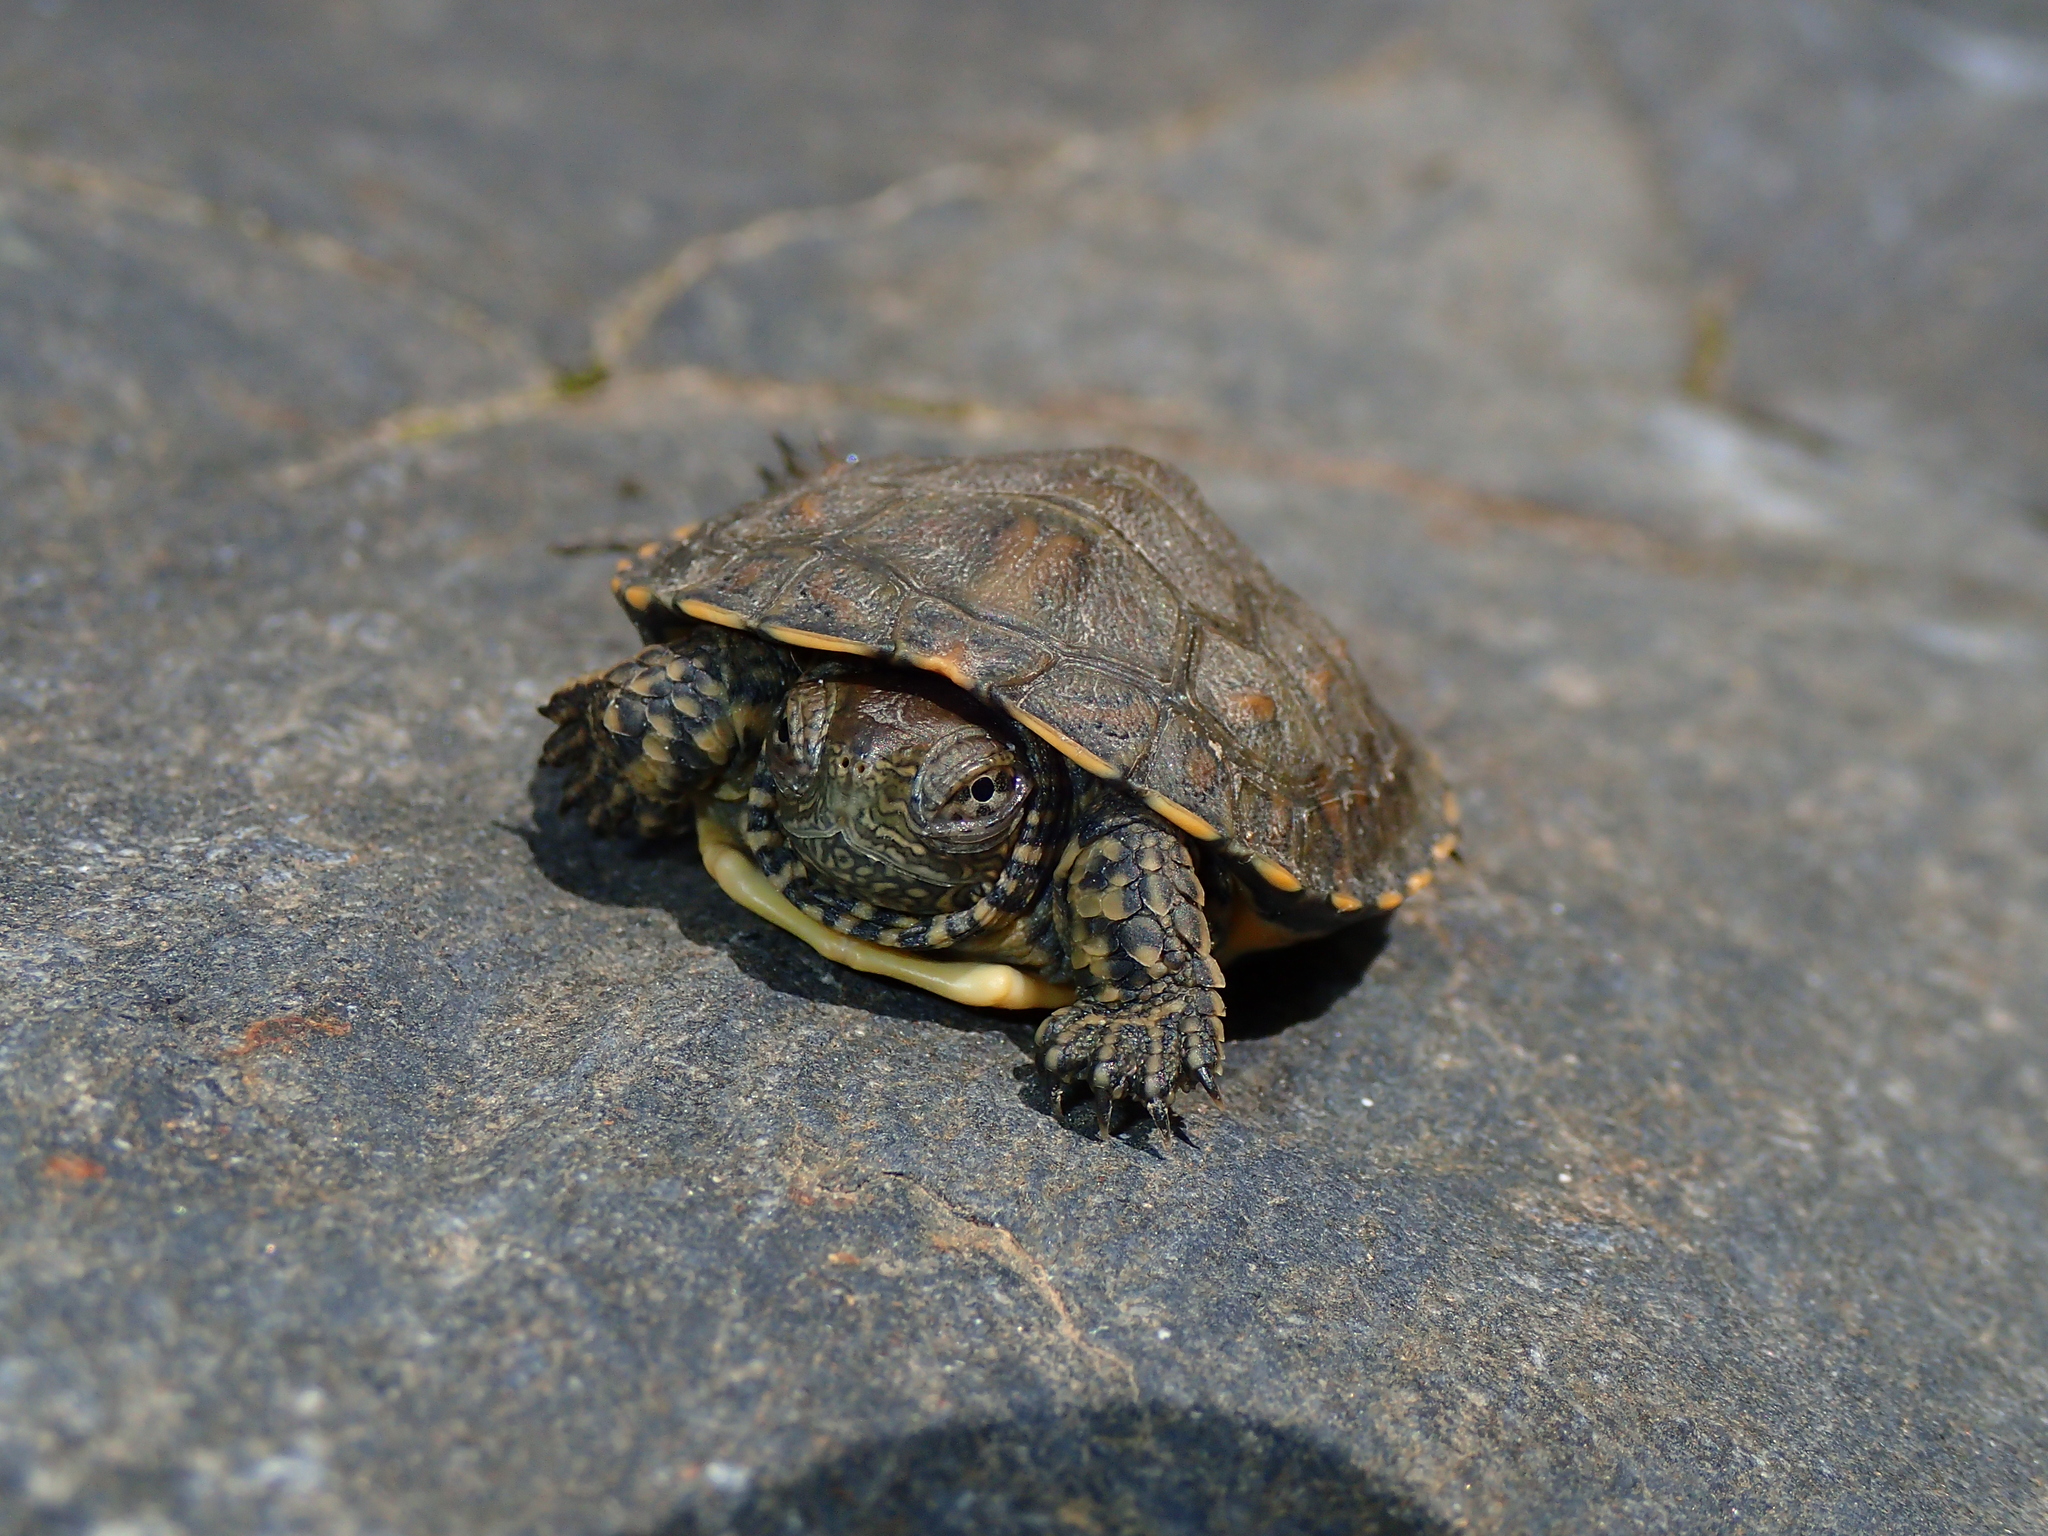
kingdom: Animalia
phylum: Chordata
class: Testudines
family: Geoemydidae
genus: Mauremys
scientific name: Mauremys leprosa
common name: Mediterranean pond turtle
